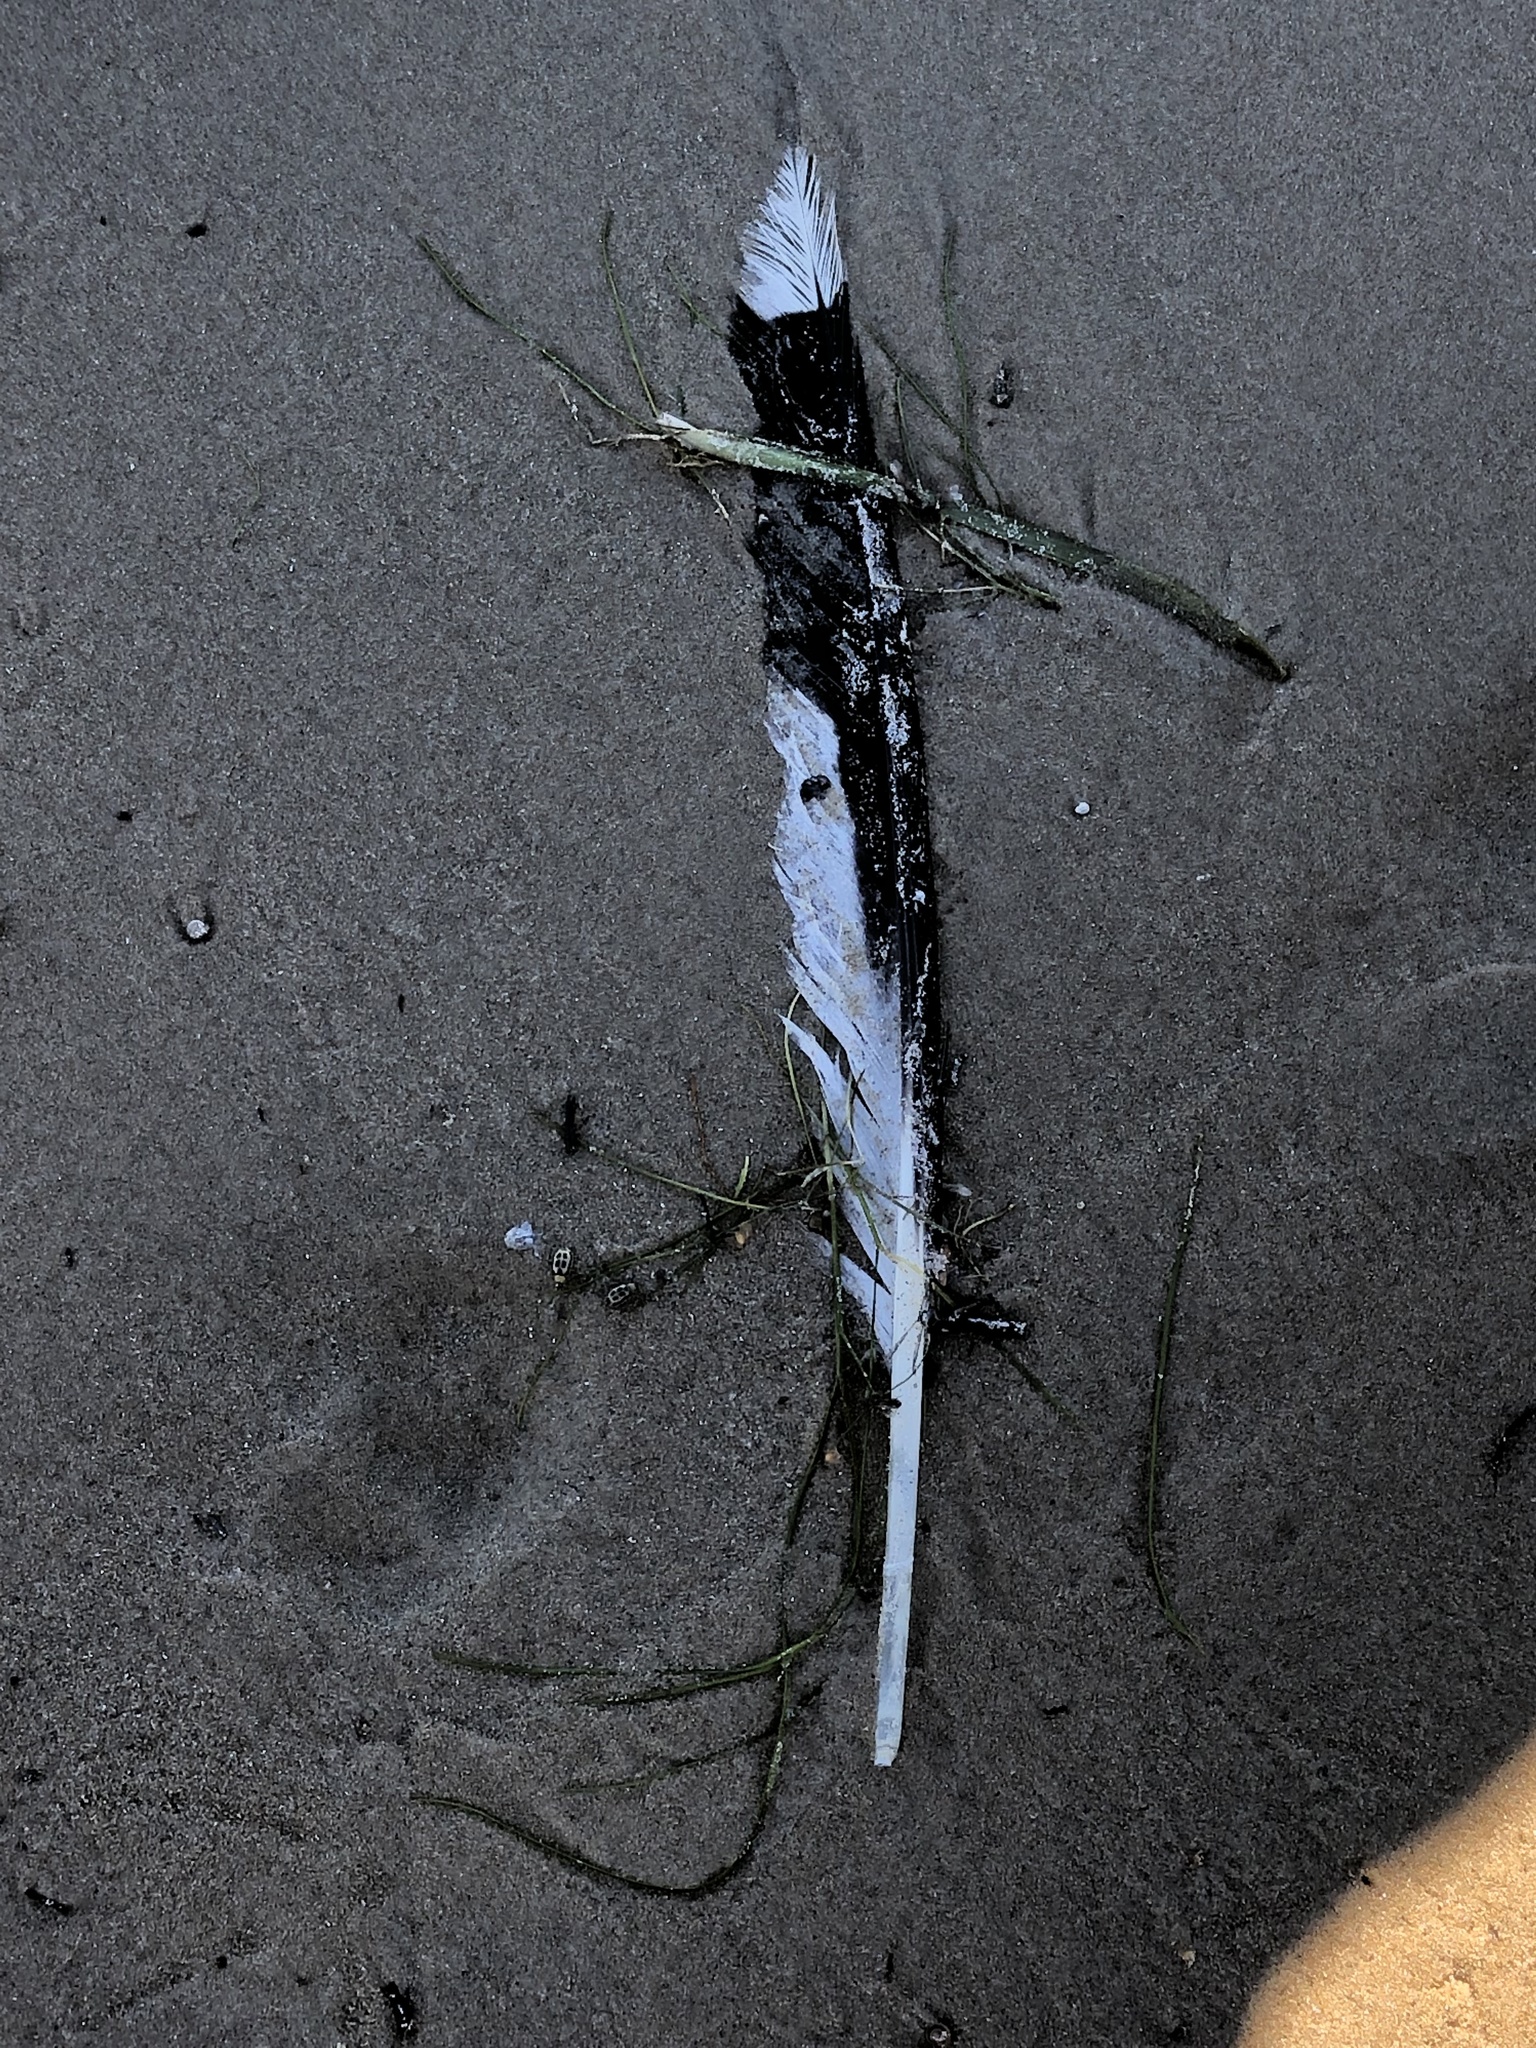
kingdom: Animalia
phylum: Chordata
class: Aves
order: Charadriiformes
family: Laridae
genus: Larus
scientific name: Larus delawarensis
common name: Ring-billed gull
